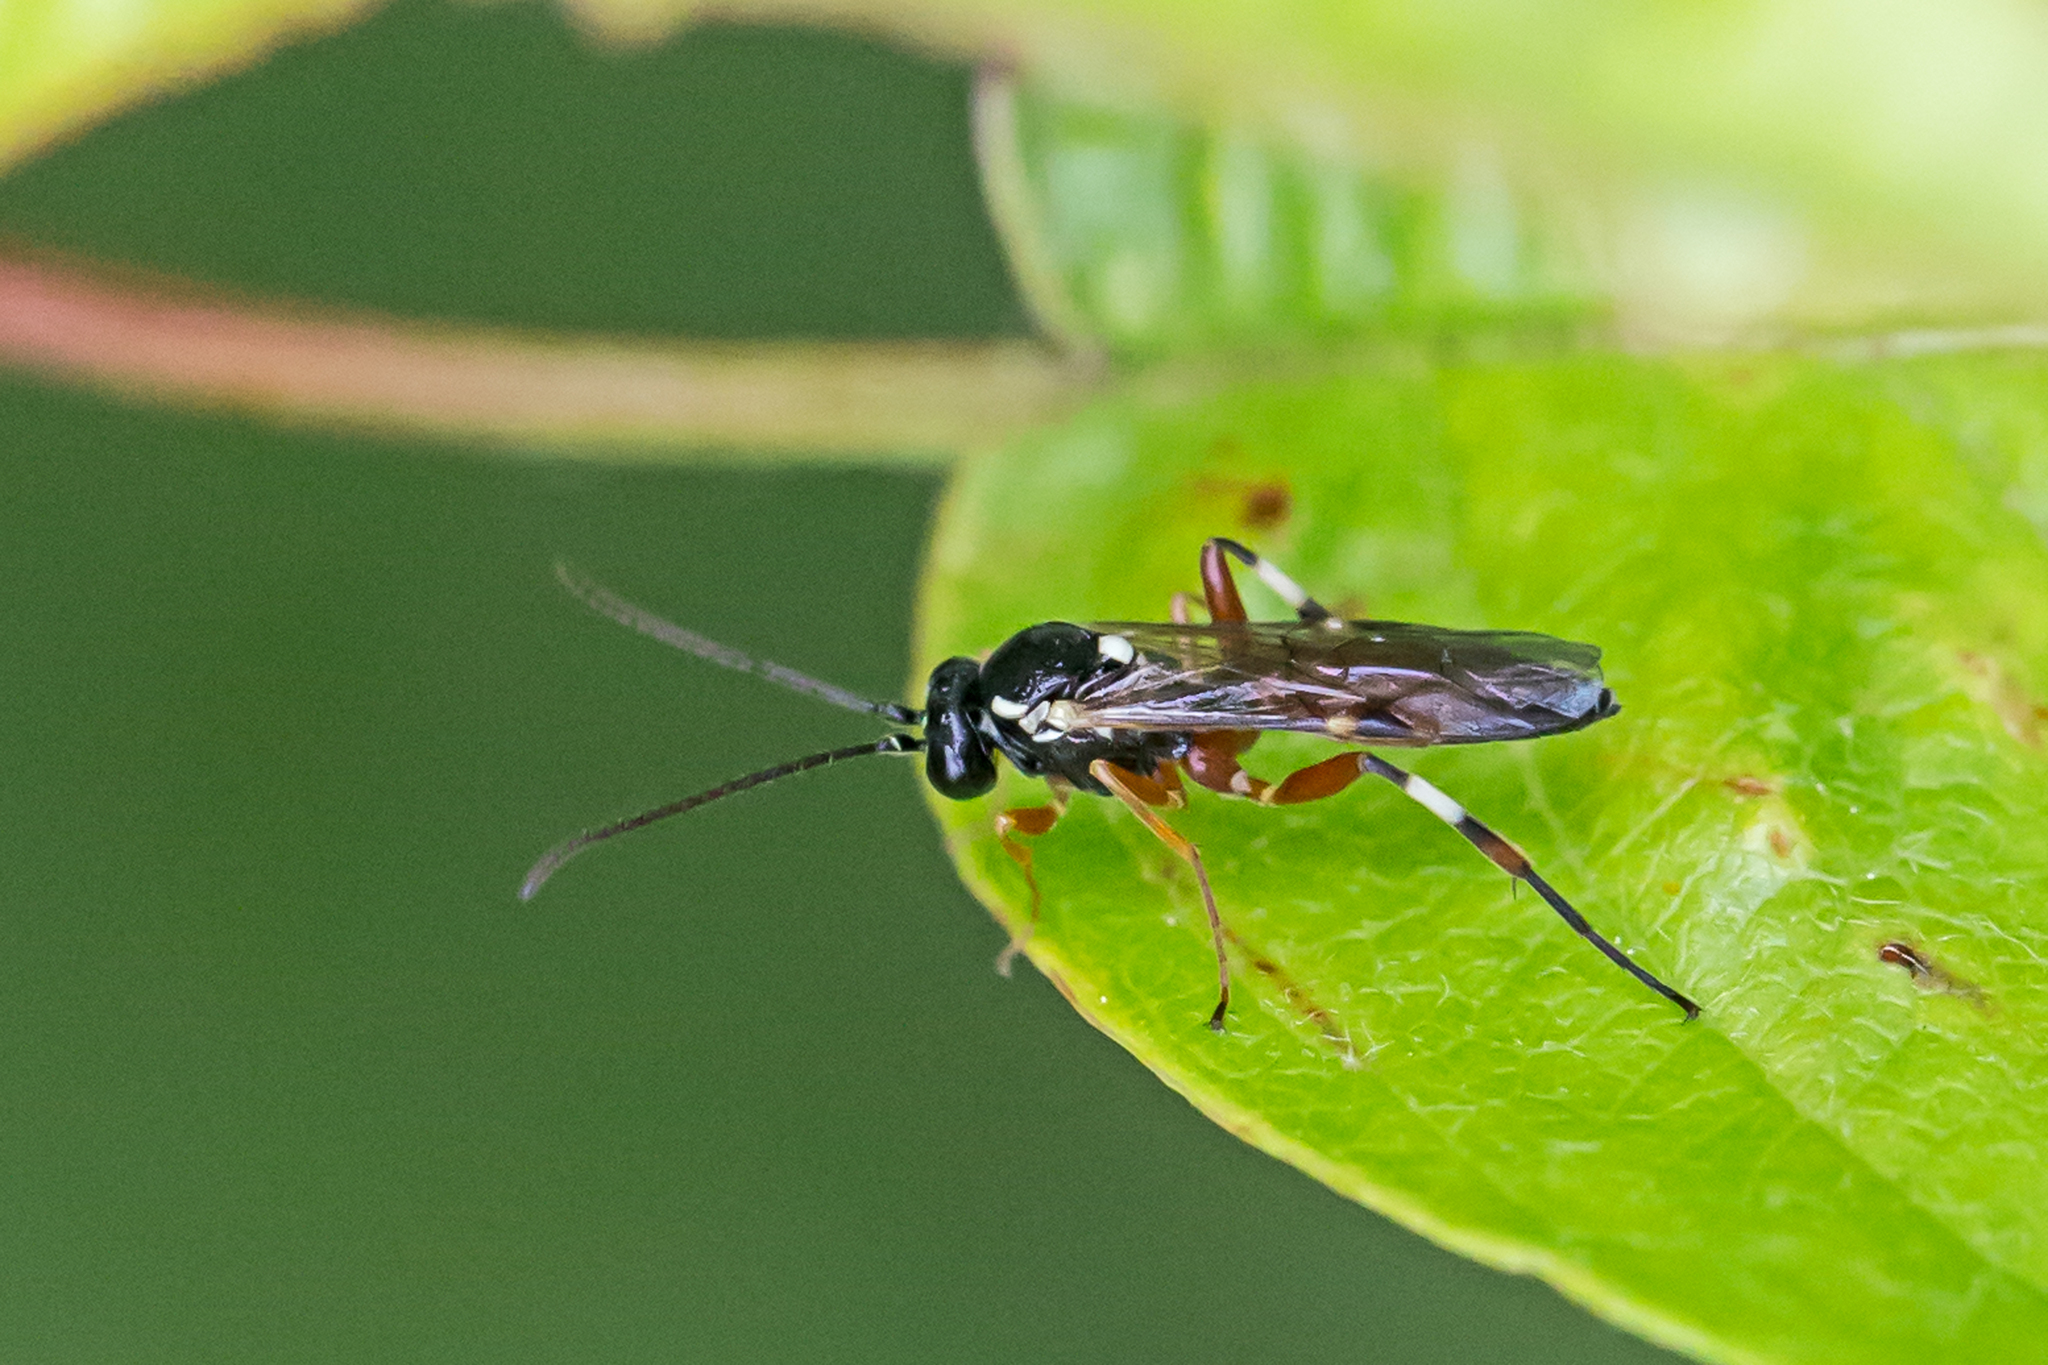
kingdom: Animalia
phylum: Arthropoda
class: Insecta
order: Hymenoptera
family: Ichneumonidae
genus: Diplazon
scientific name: Diplazon laetatorius
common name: Parasitoid wasp
